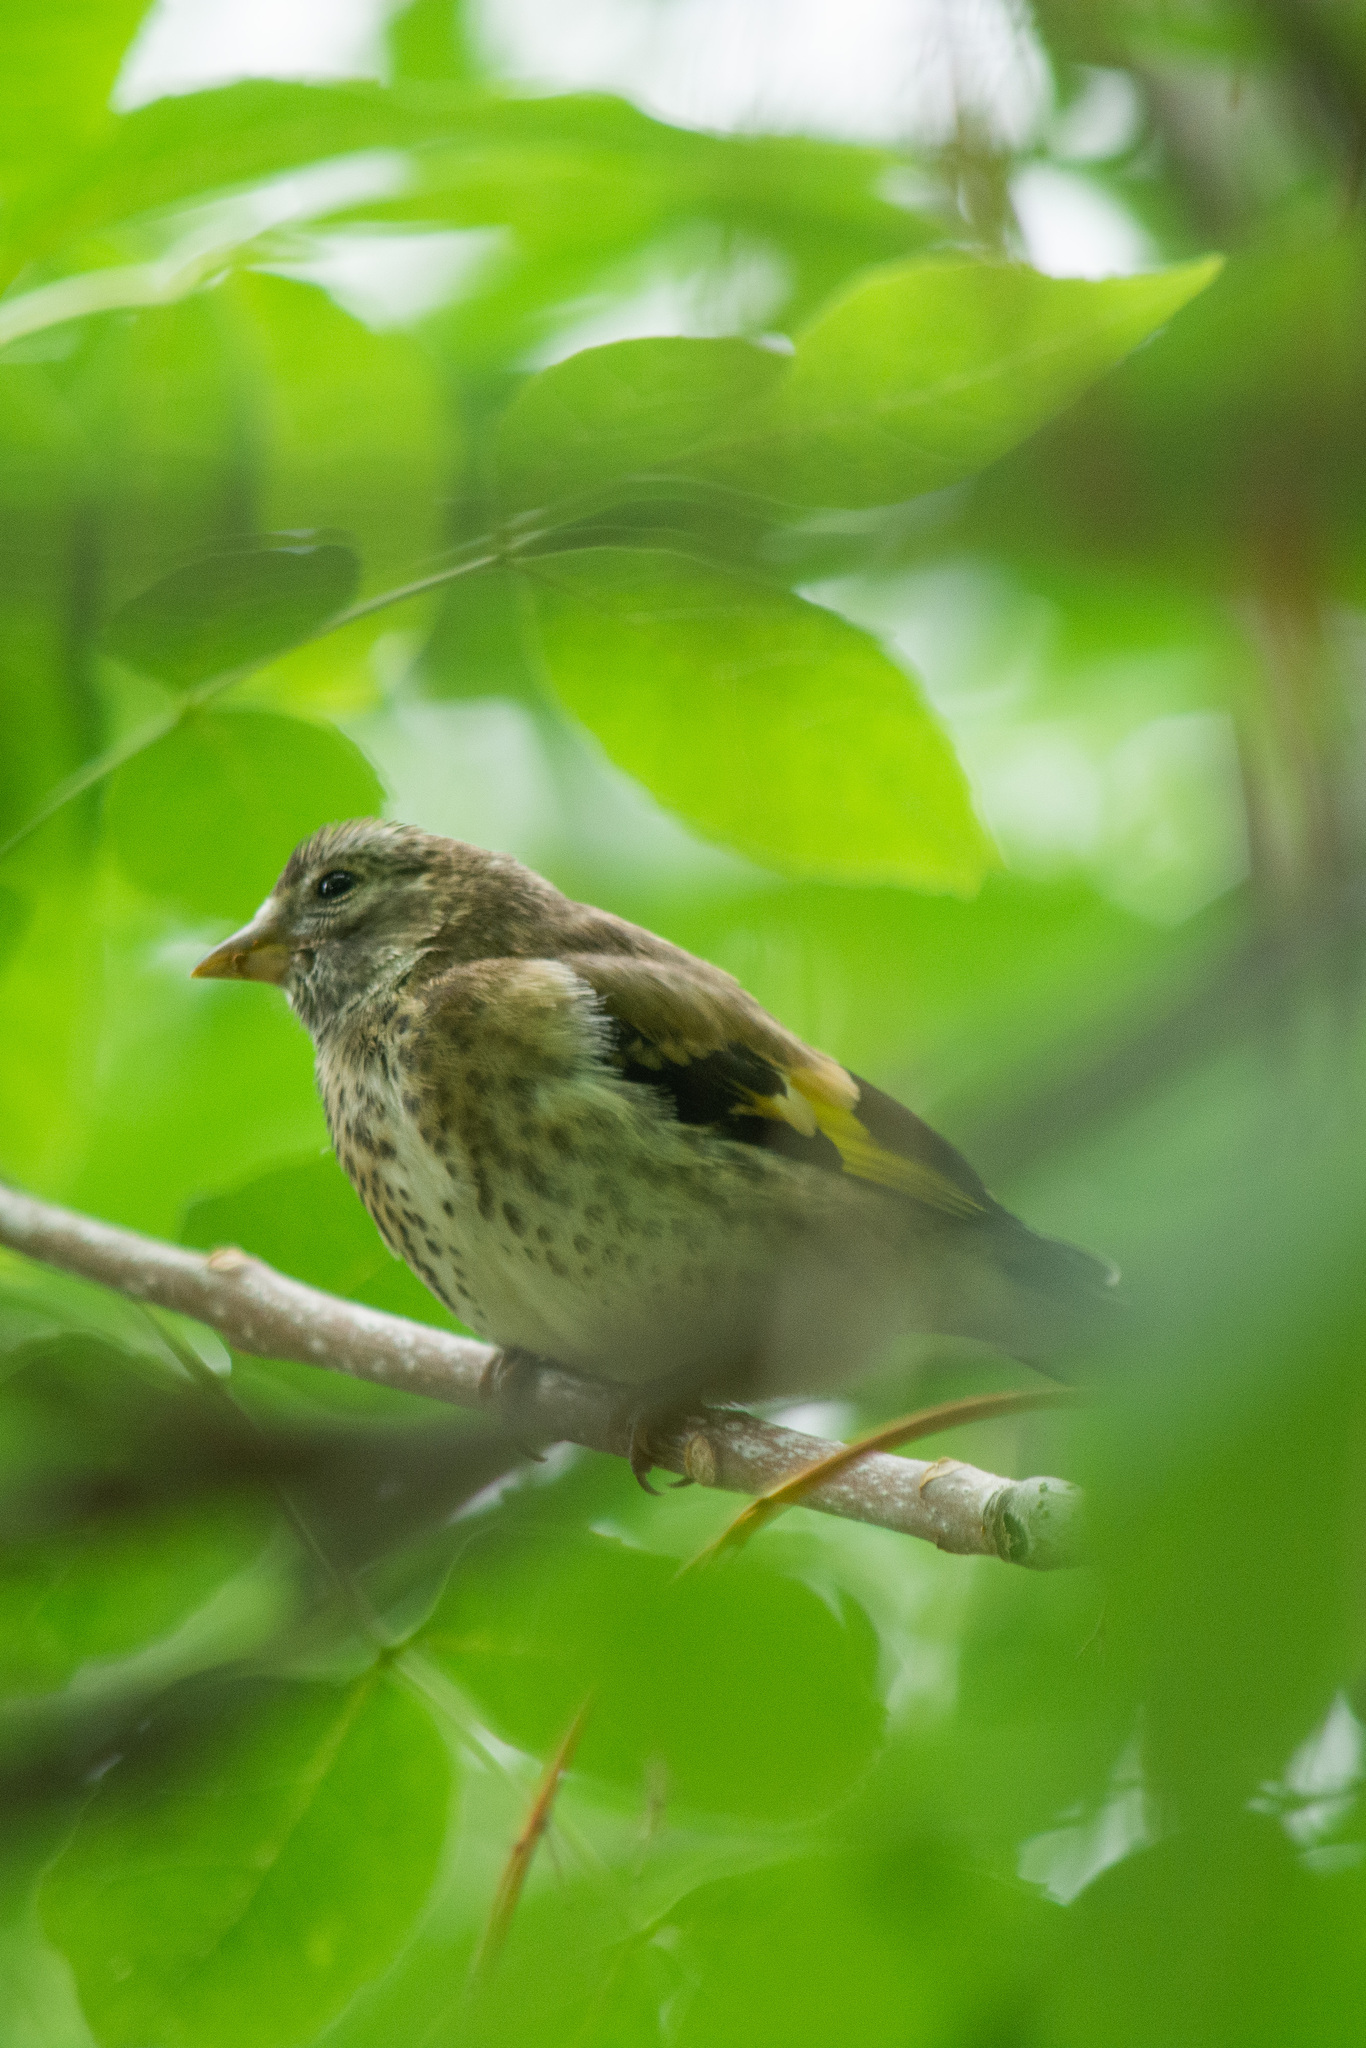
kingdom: Animalia
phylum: Chordata
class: Aves
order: Passeriformes
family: Fringillidae
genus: Carduelis
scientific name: Carduelis carduelis
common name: European goldfinch
